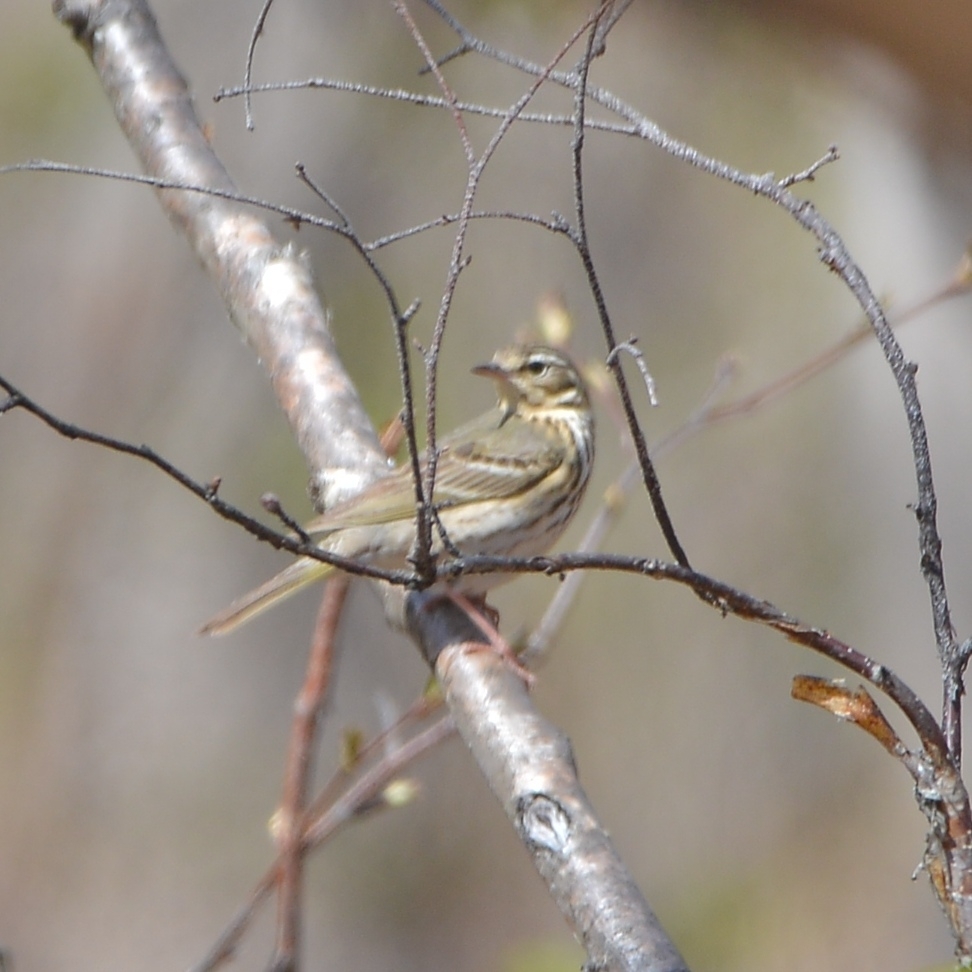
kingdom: Animalia
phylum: Chordata
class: Aves
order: Passeriformes
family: Motacillidae
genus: Anthus
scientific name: Anthus hodgsoni
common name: Olive-backed pipit
